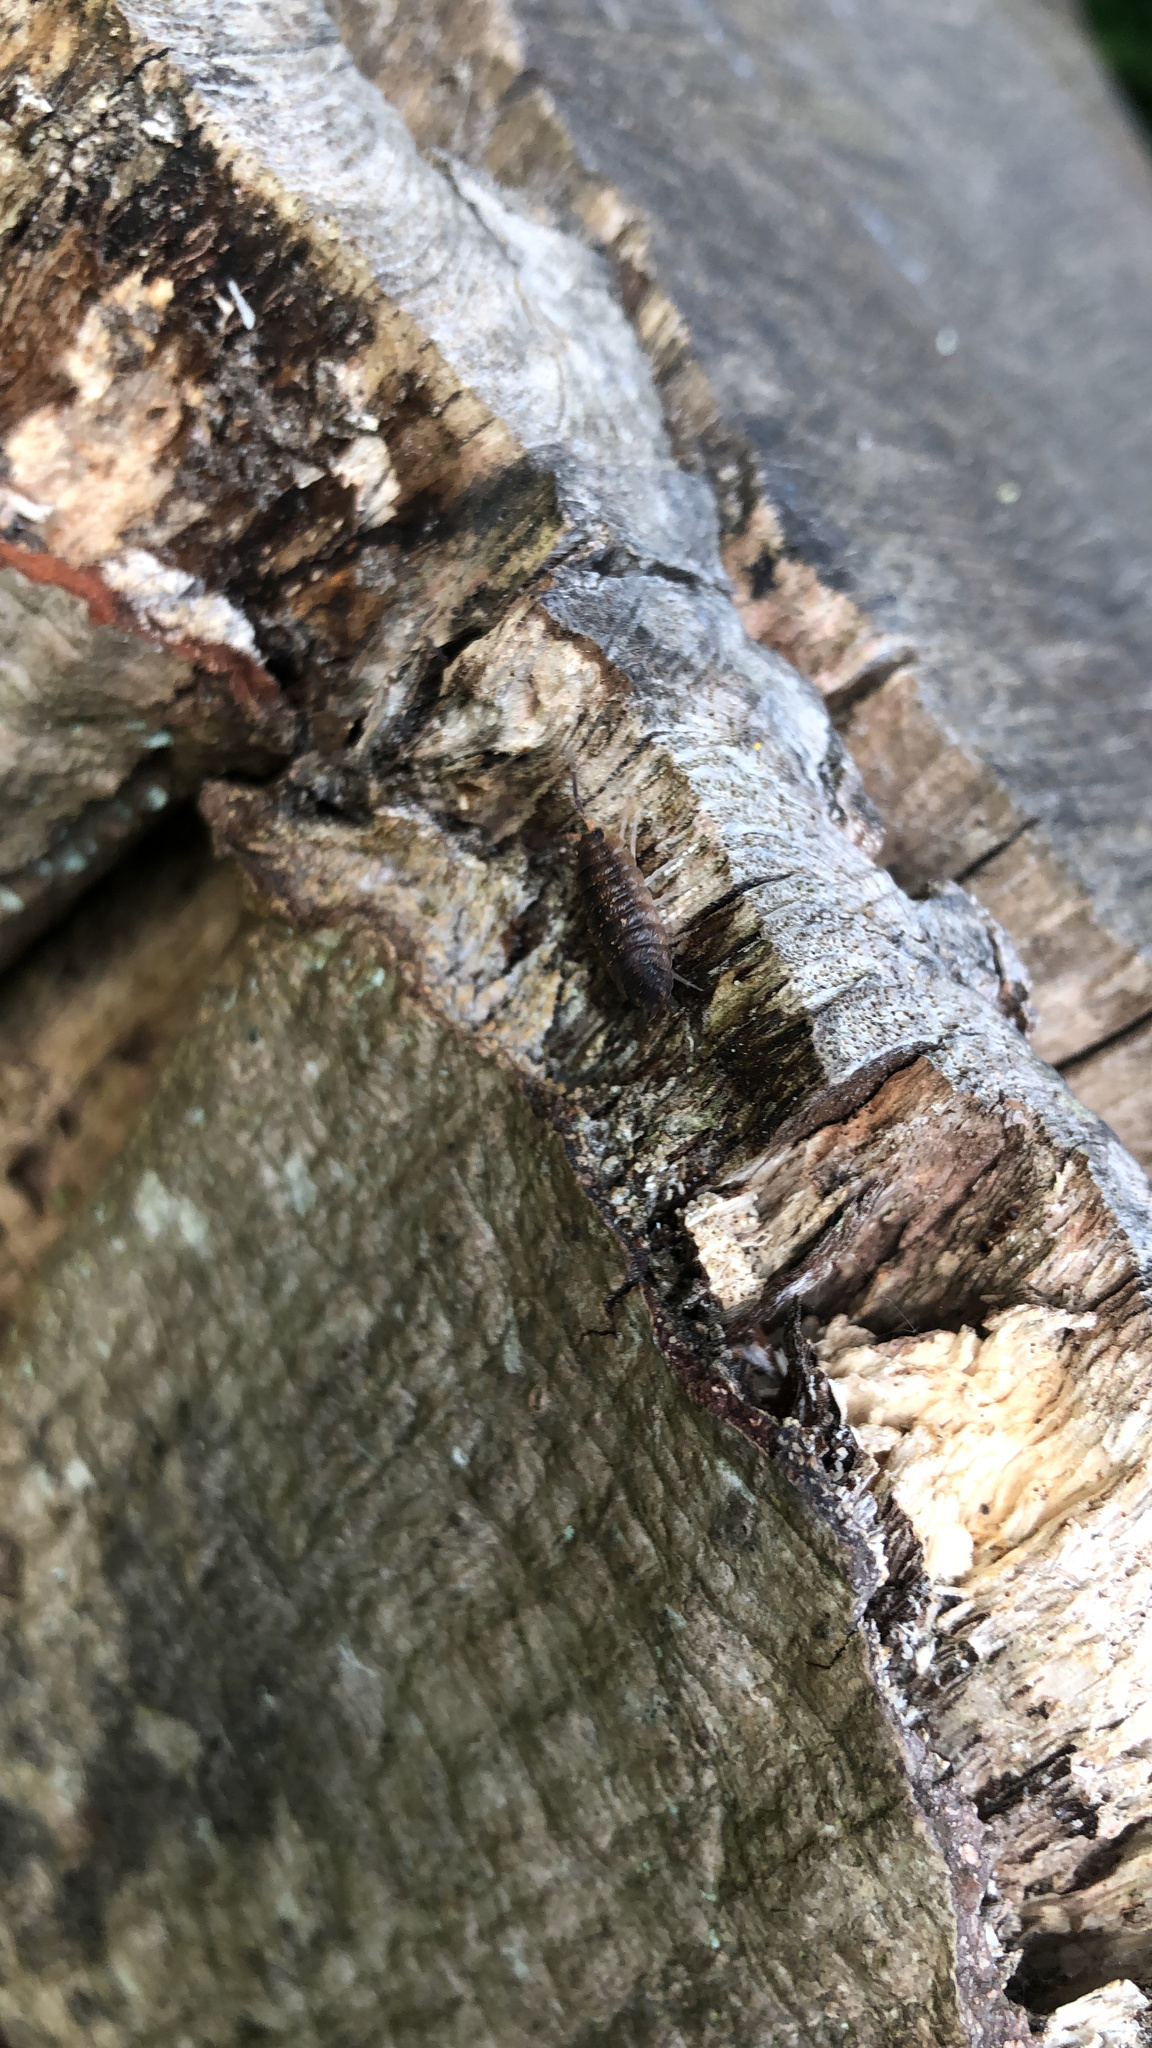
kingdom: Animalia
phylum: Arthropoda
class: Malacostraca
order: Isopoda
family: Porcellionidae
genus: Porcellio
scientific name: Porcellio scaber
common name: Common rough woodlouse
